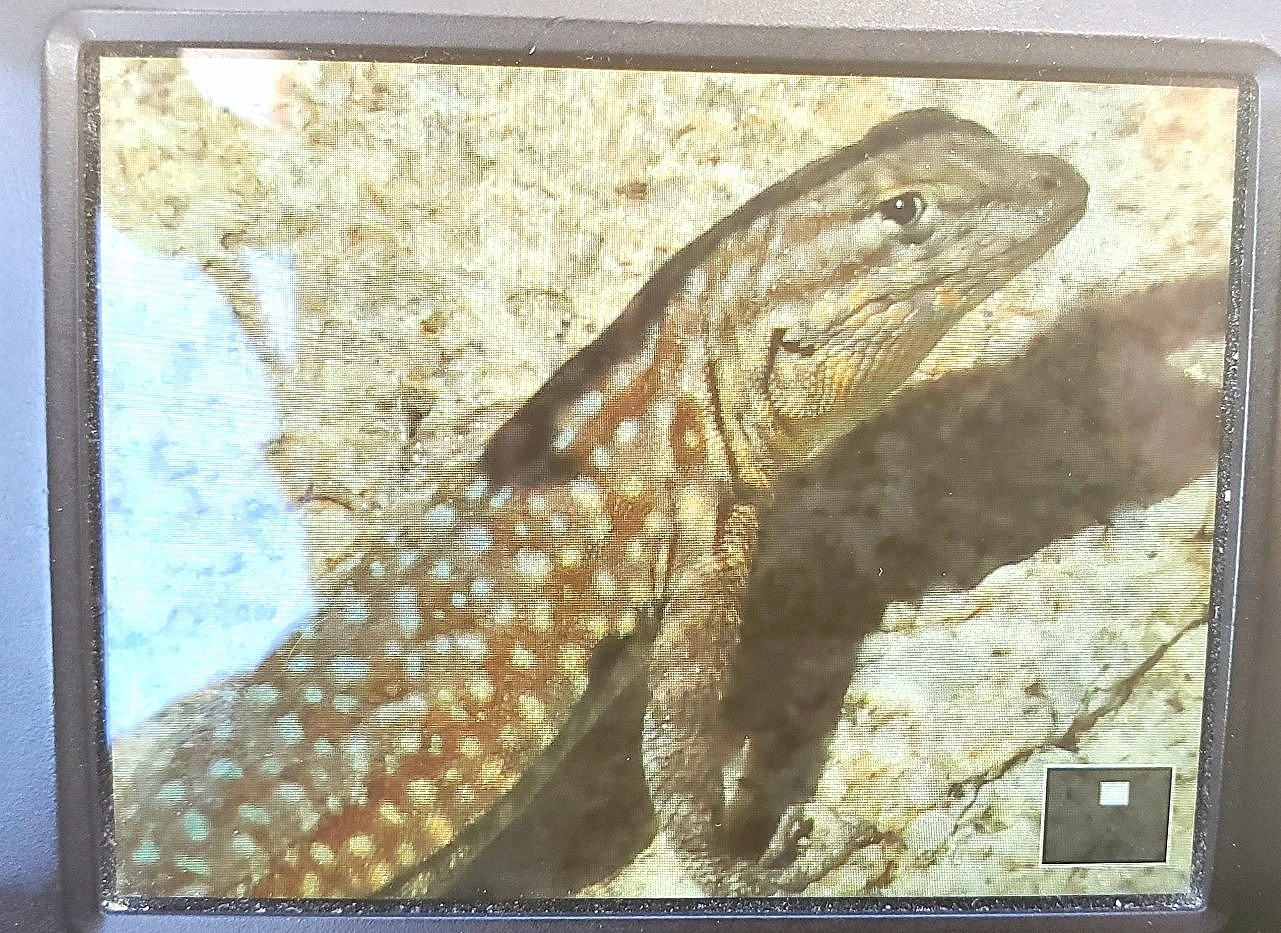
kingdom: Animalia
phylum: Chordata
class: Squamata
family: Phrynosomatidae
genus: Uta
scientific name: Uta stansburiana
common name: Side-blotched lizard
